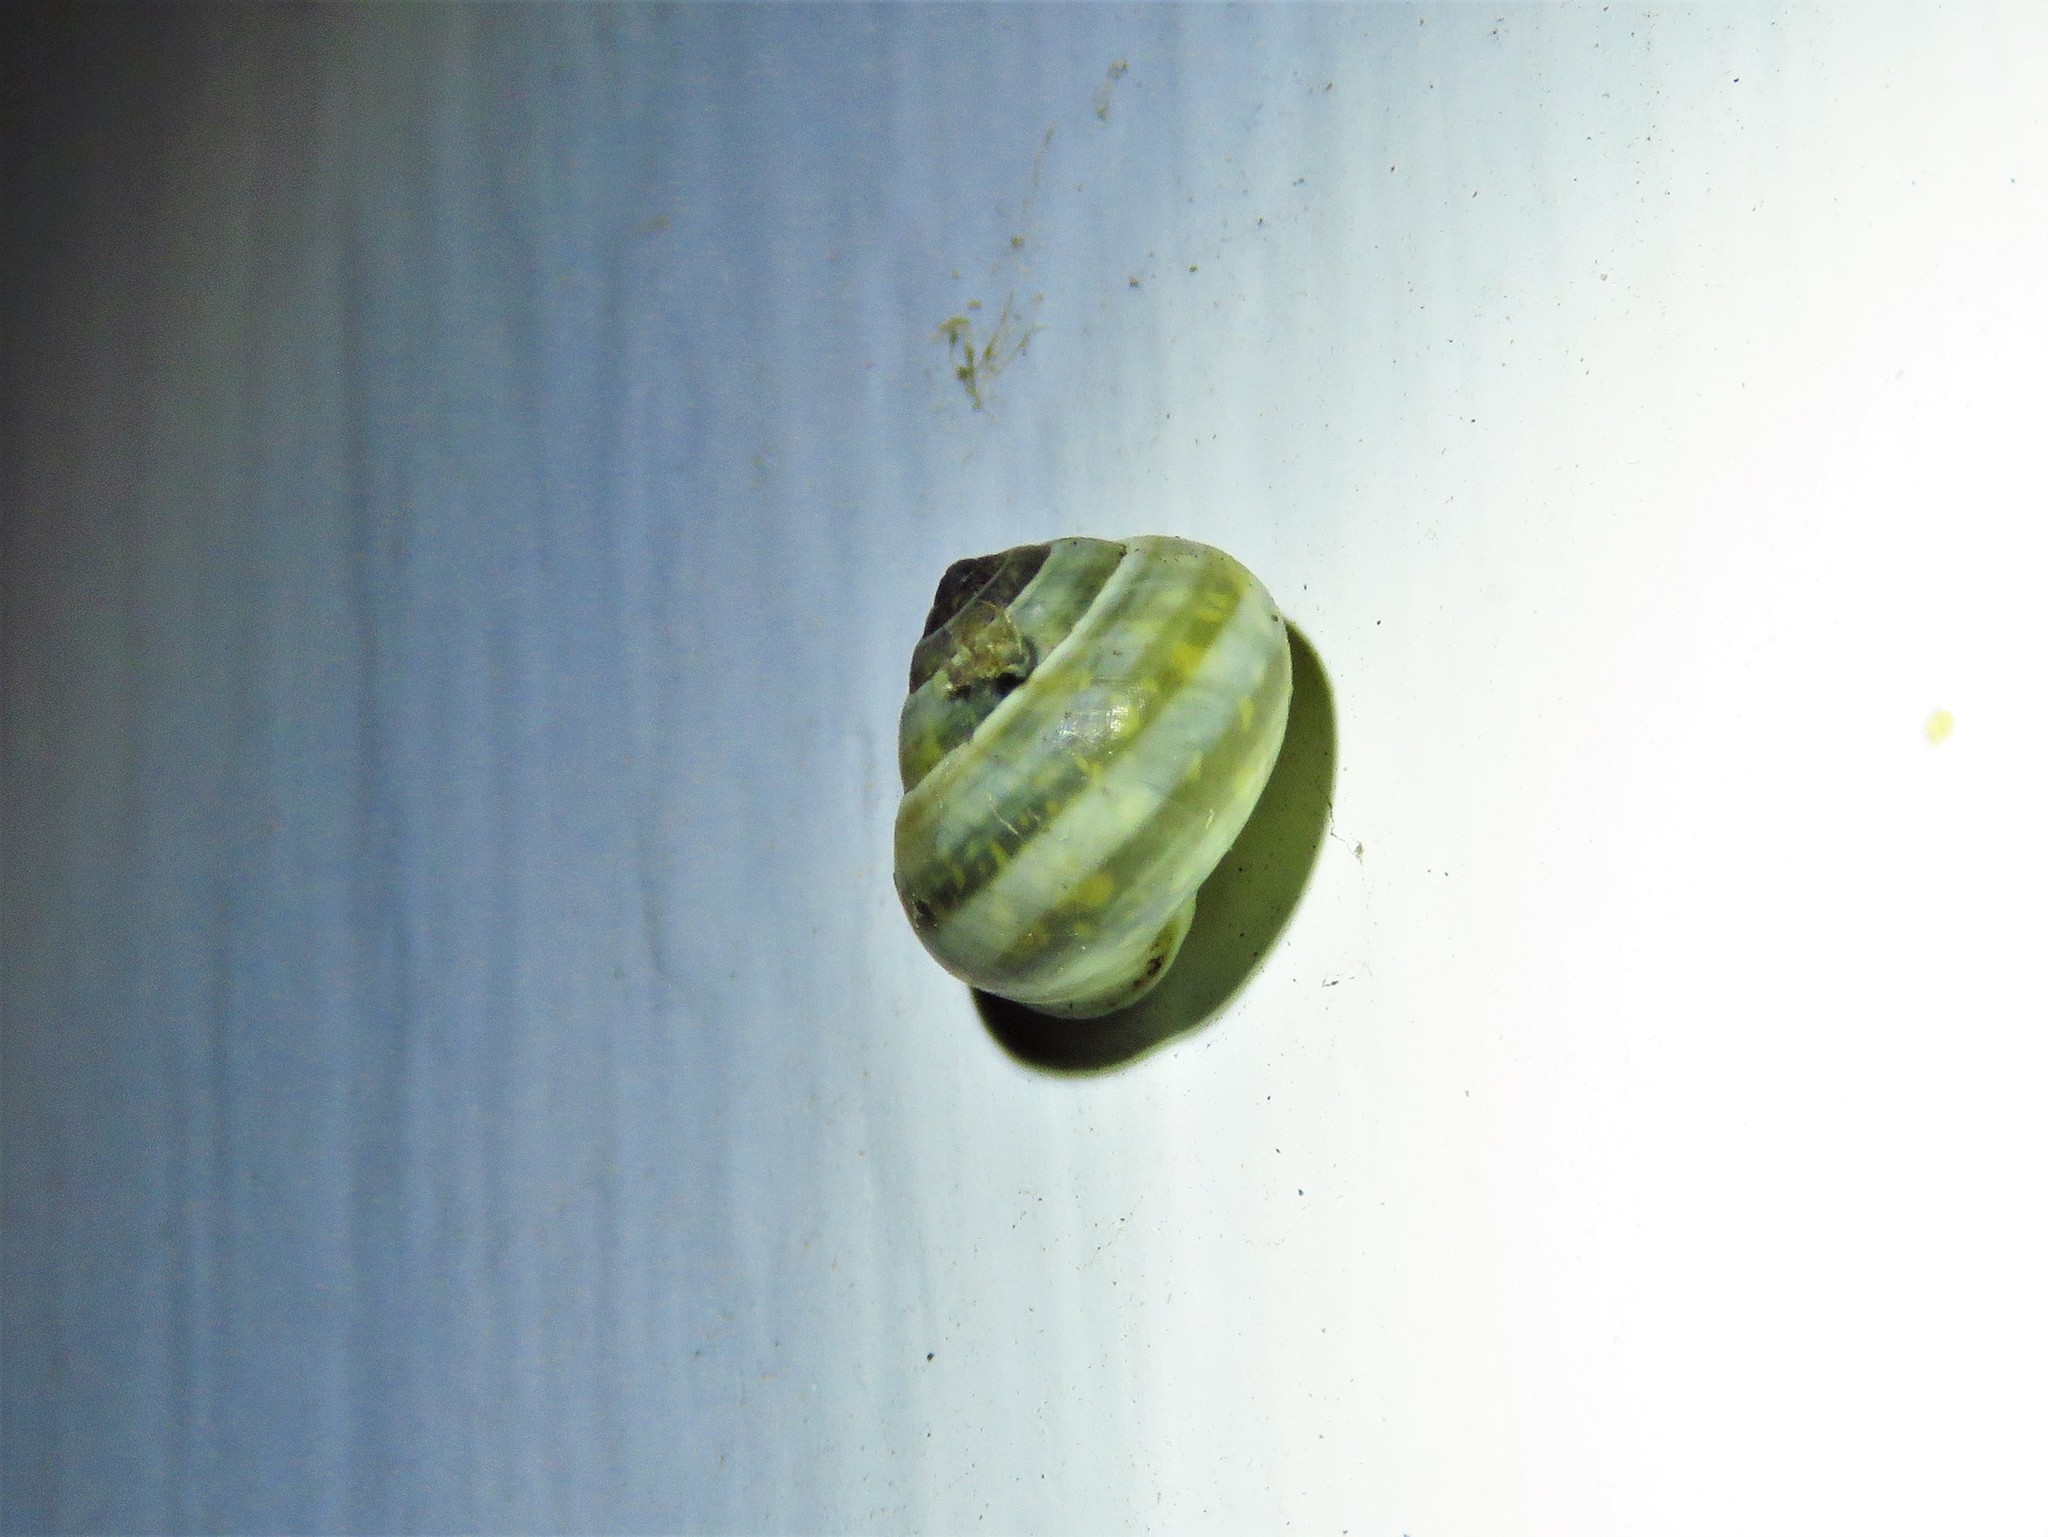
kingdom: Animalia
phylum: Mollusca
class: Gastropoda
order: Cycloneritida
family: Helicinidae
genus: Helicina
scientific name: Helicina orbiculata
